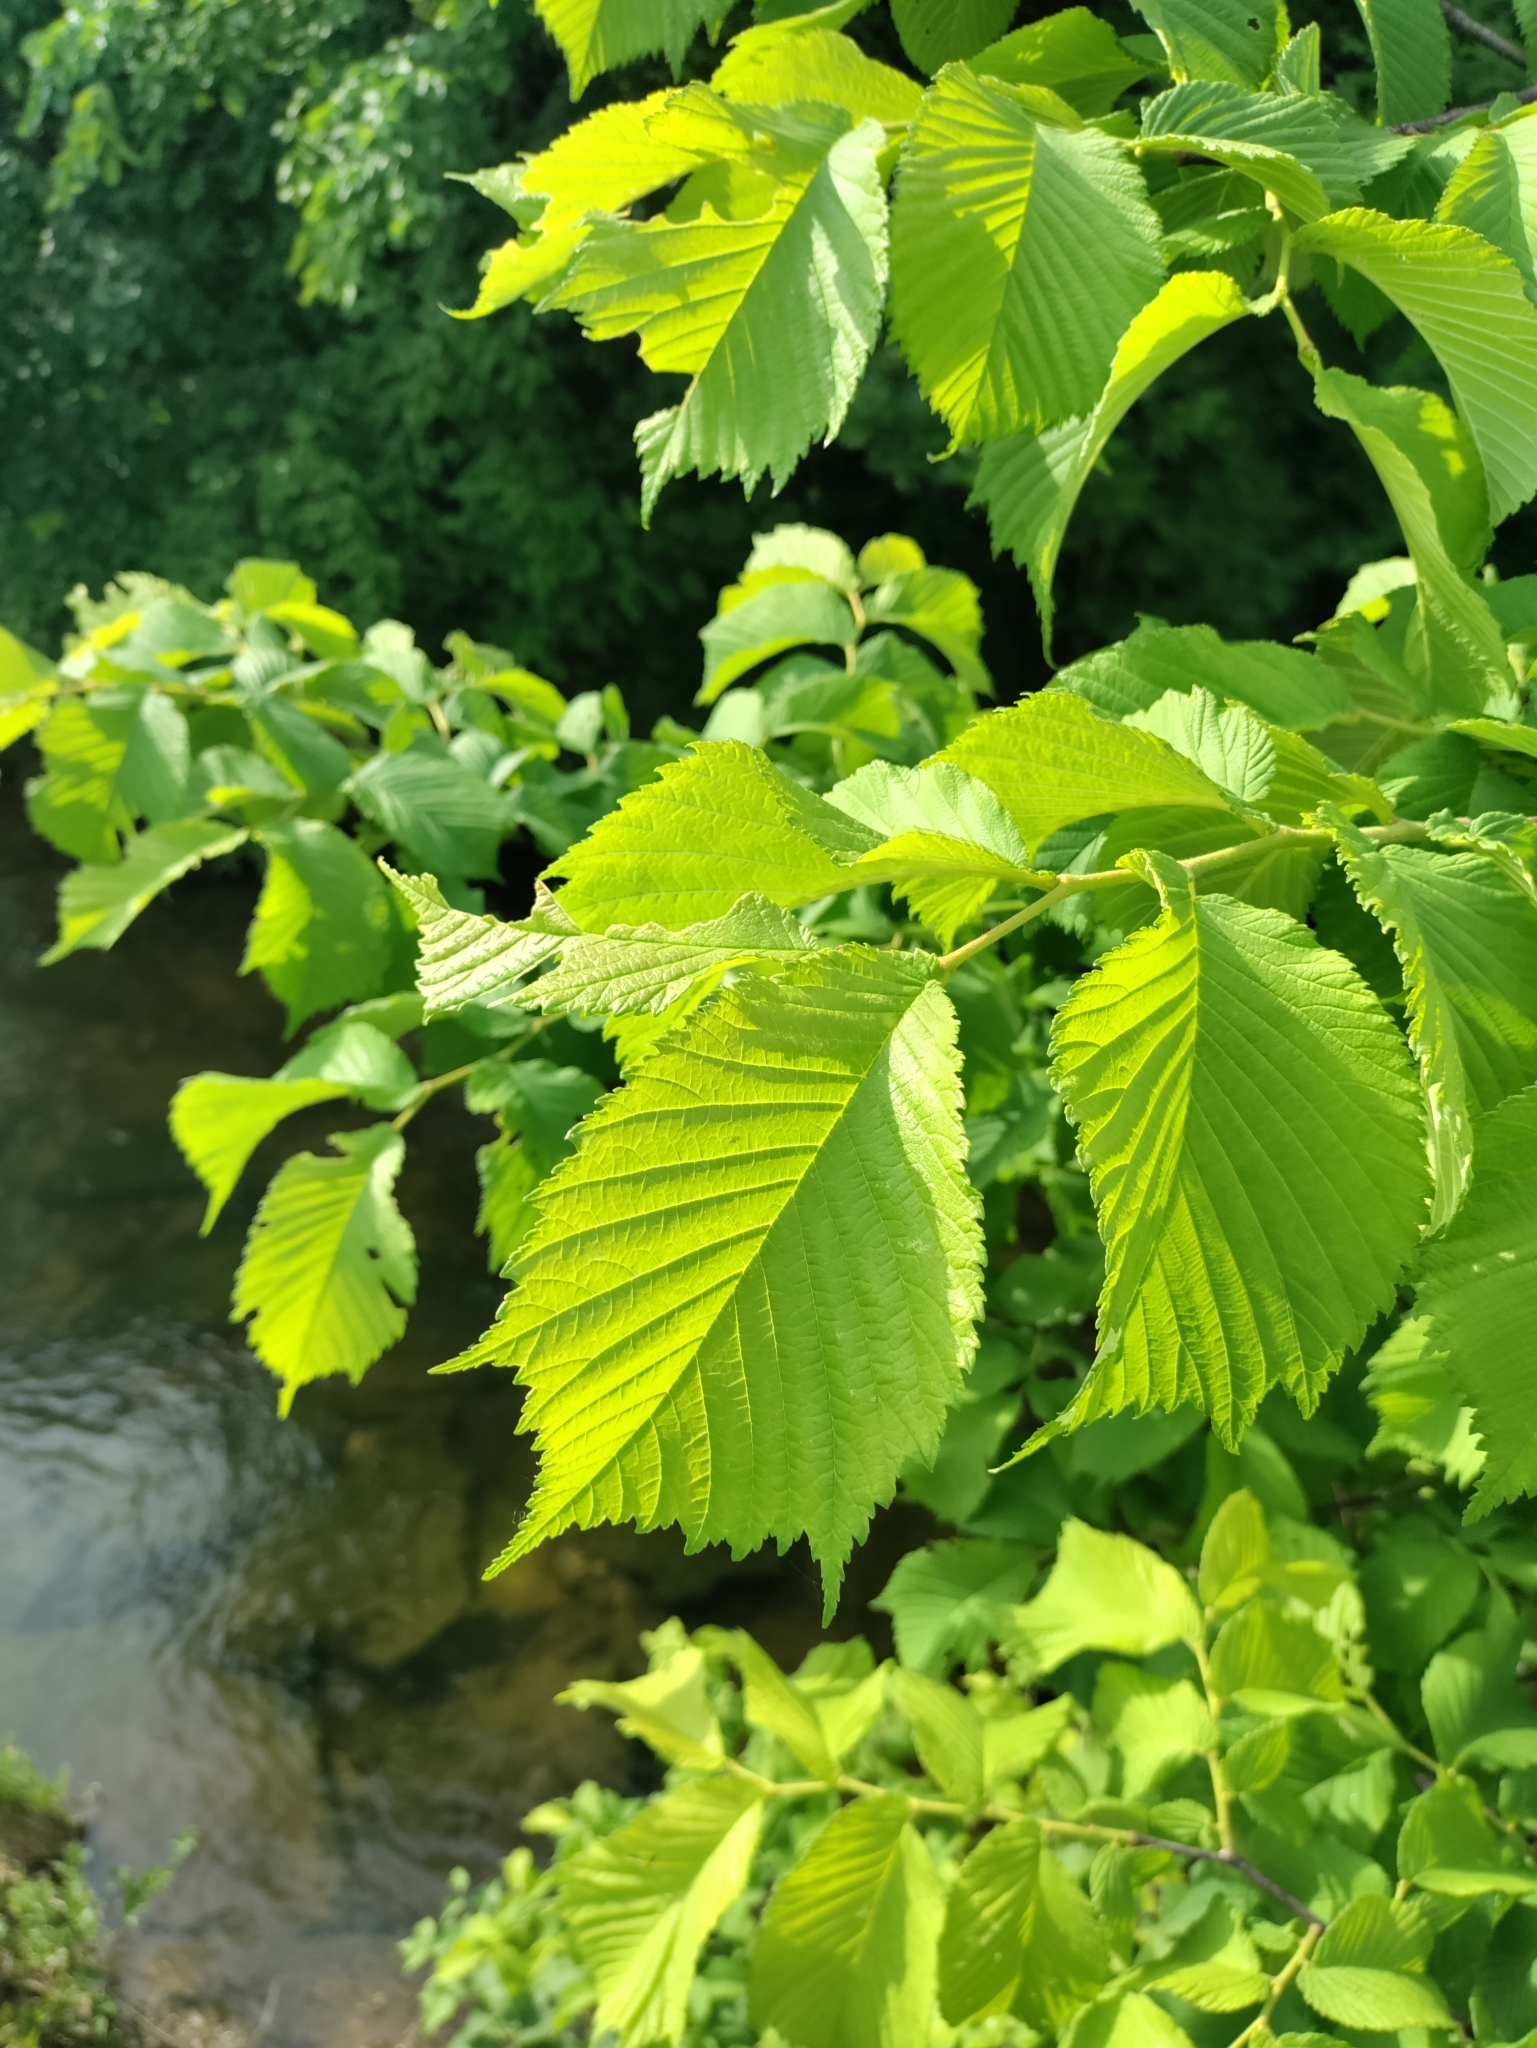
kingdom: Plantae
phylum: Tracheophyta
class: Magnoliopsida
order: Rosales
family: Ulmaceae
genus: Ulmus
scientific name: Ulmus glabra
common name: Wych elm
